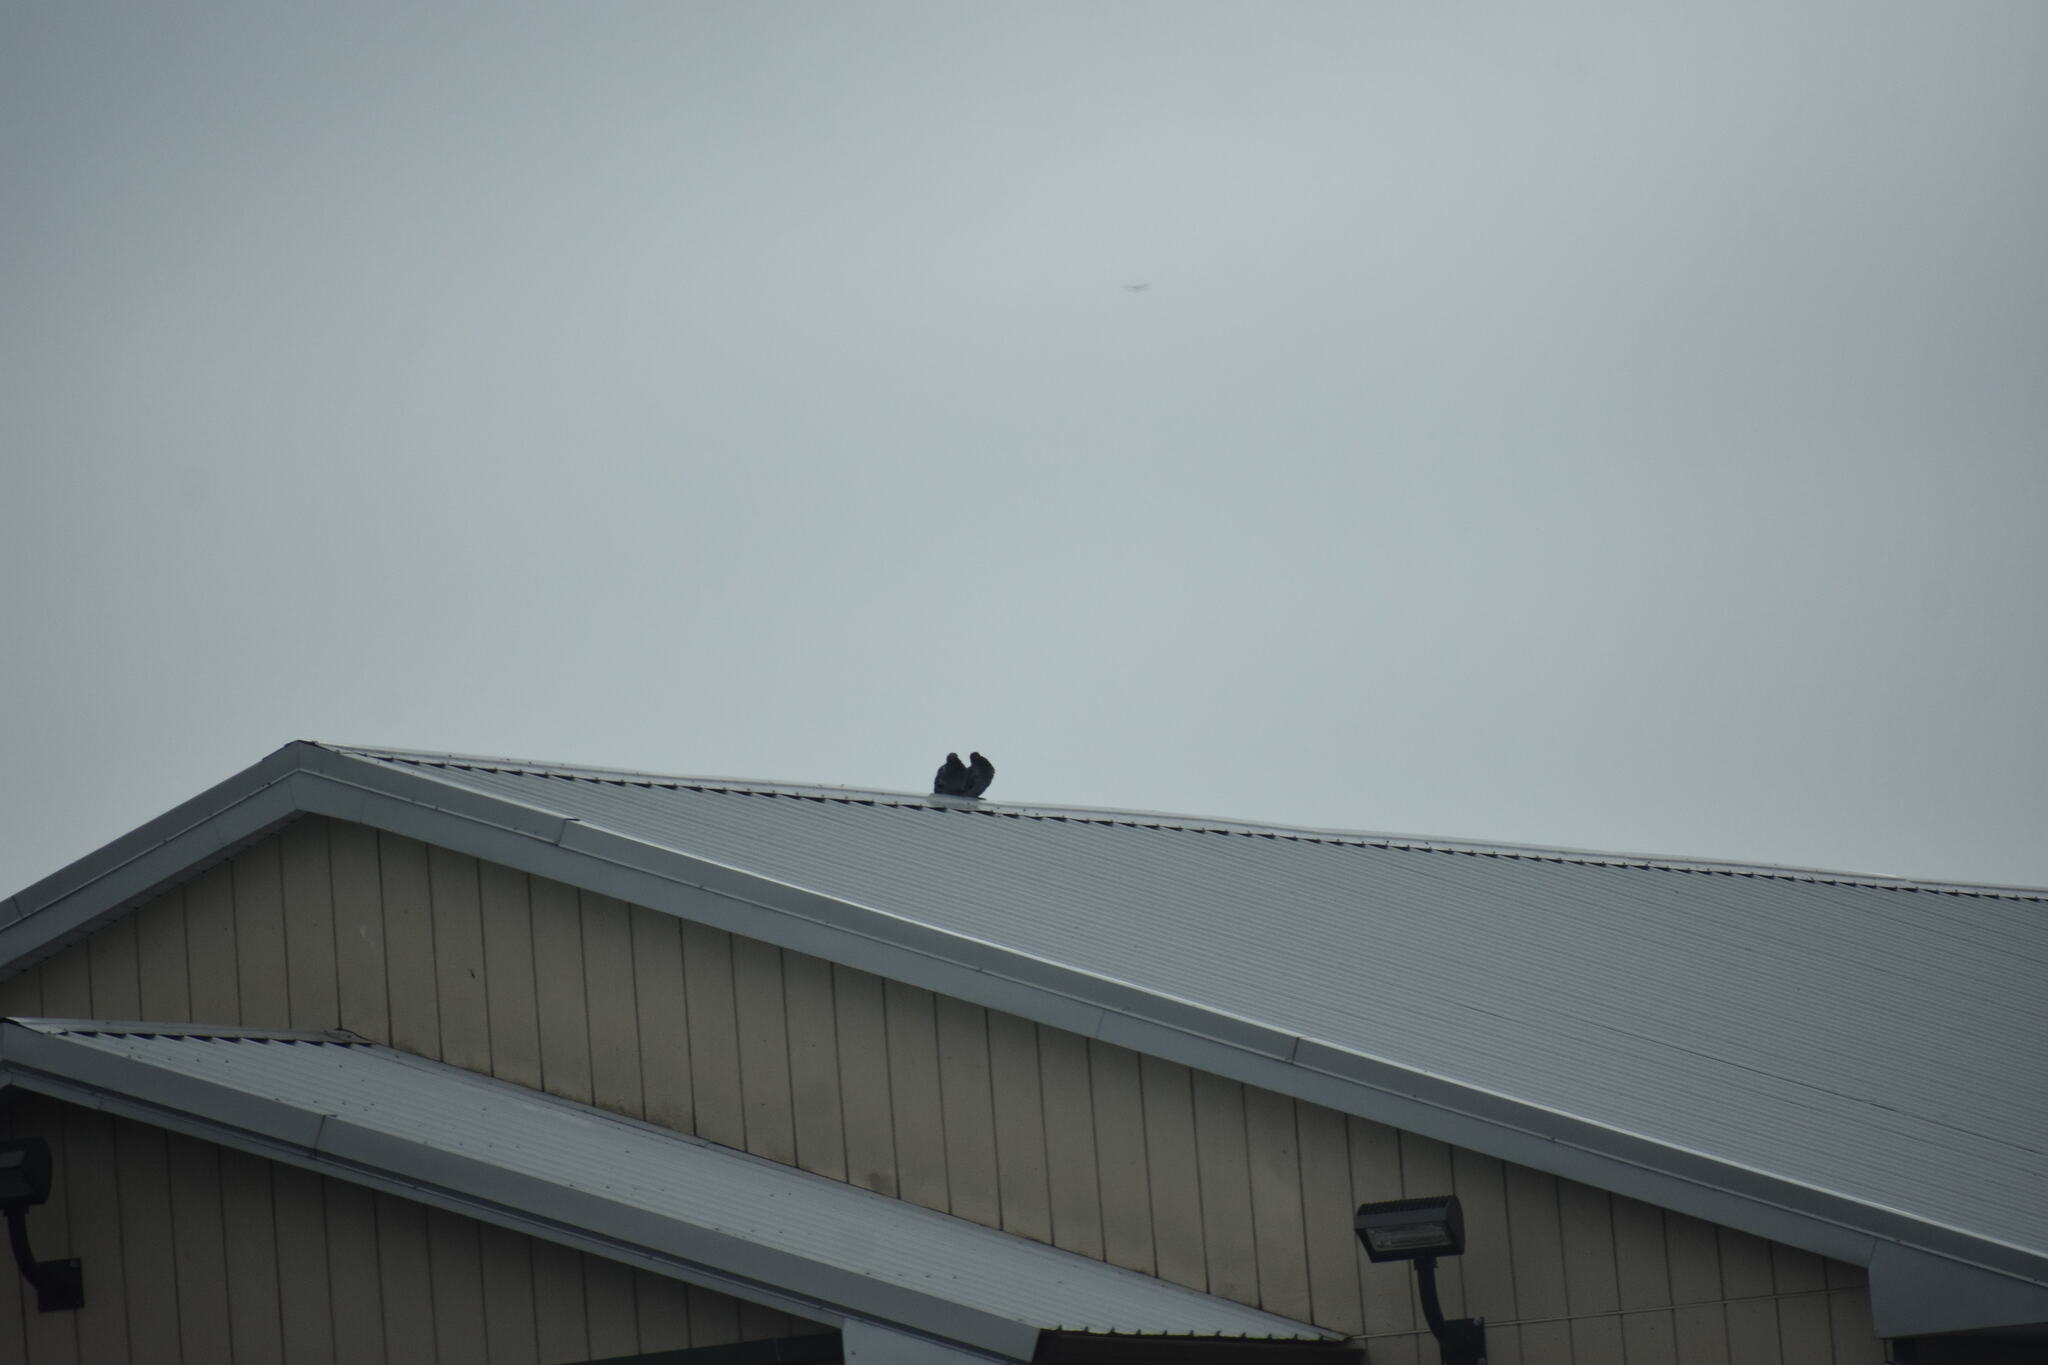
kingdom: Animalia
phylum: Chordata
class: Aves
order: Columbiformes
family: Columbidae
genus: Columba
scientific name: Columba livia
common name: Rock pigeon
